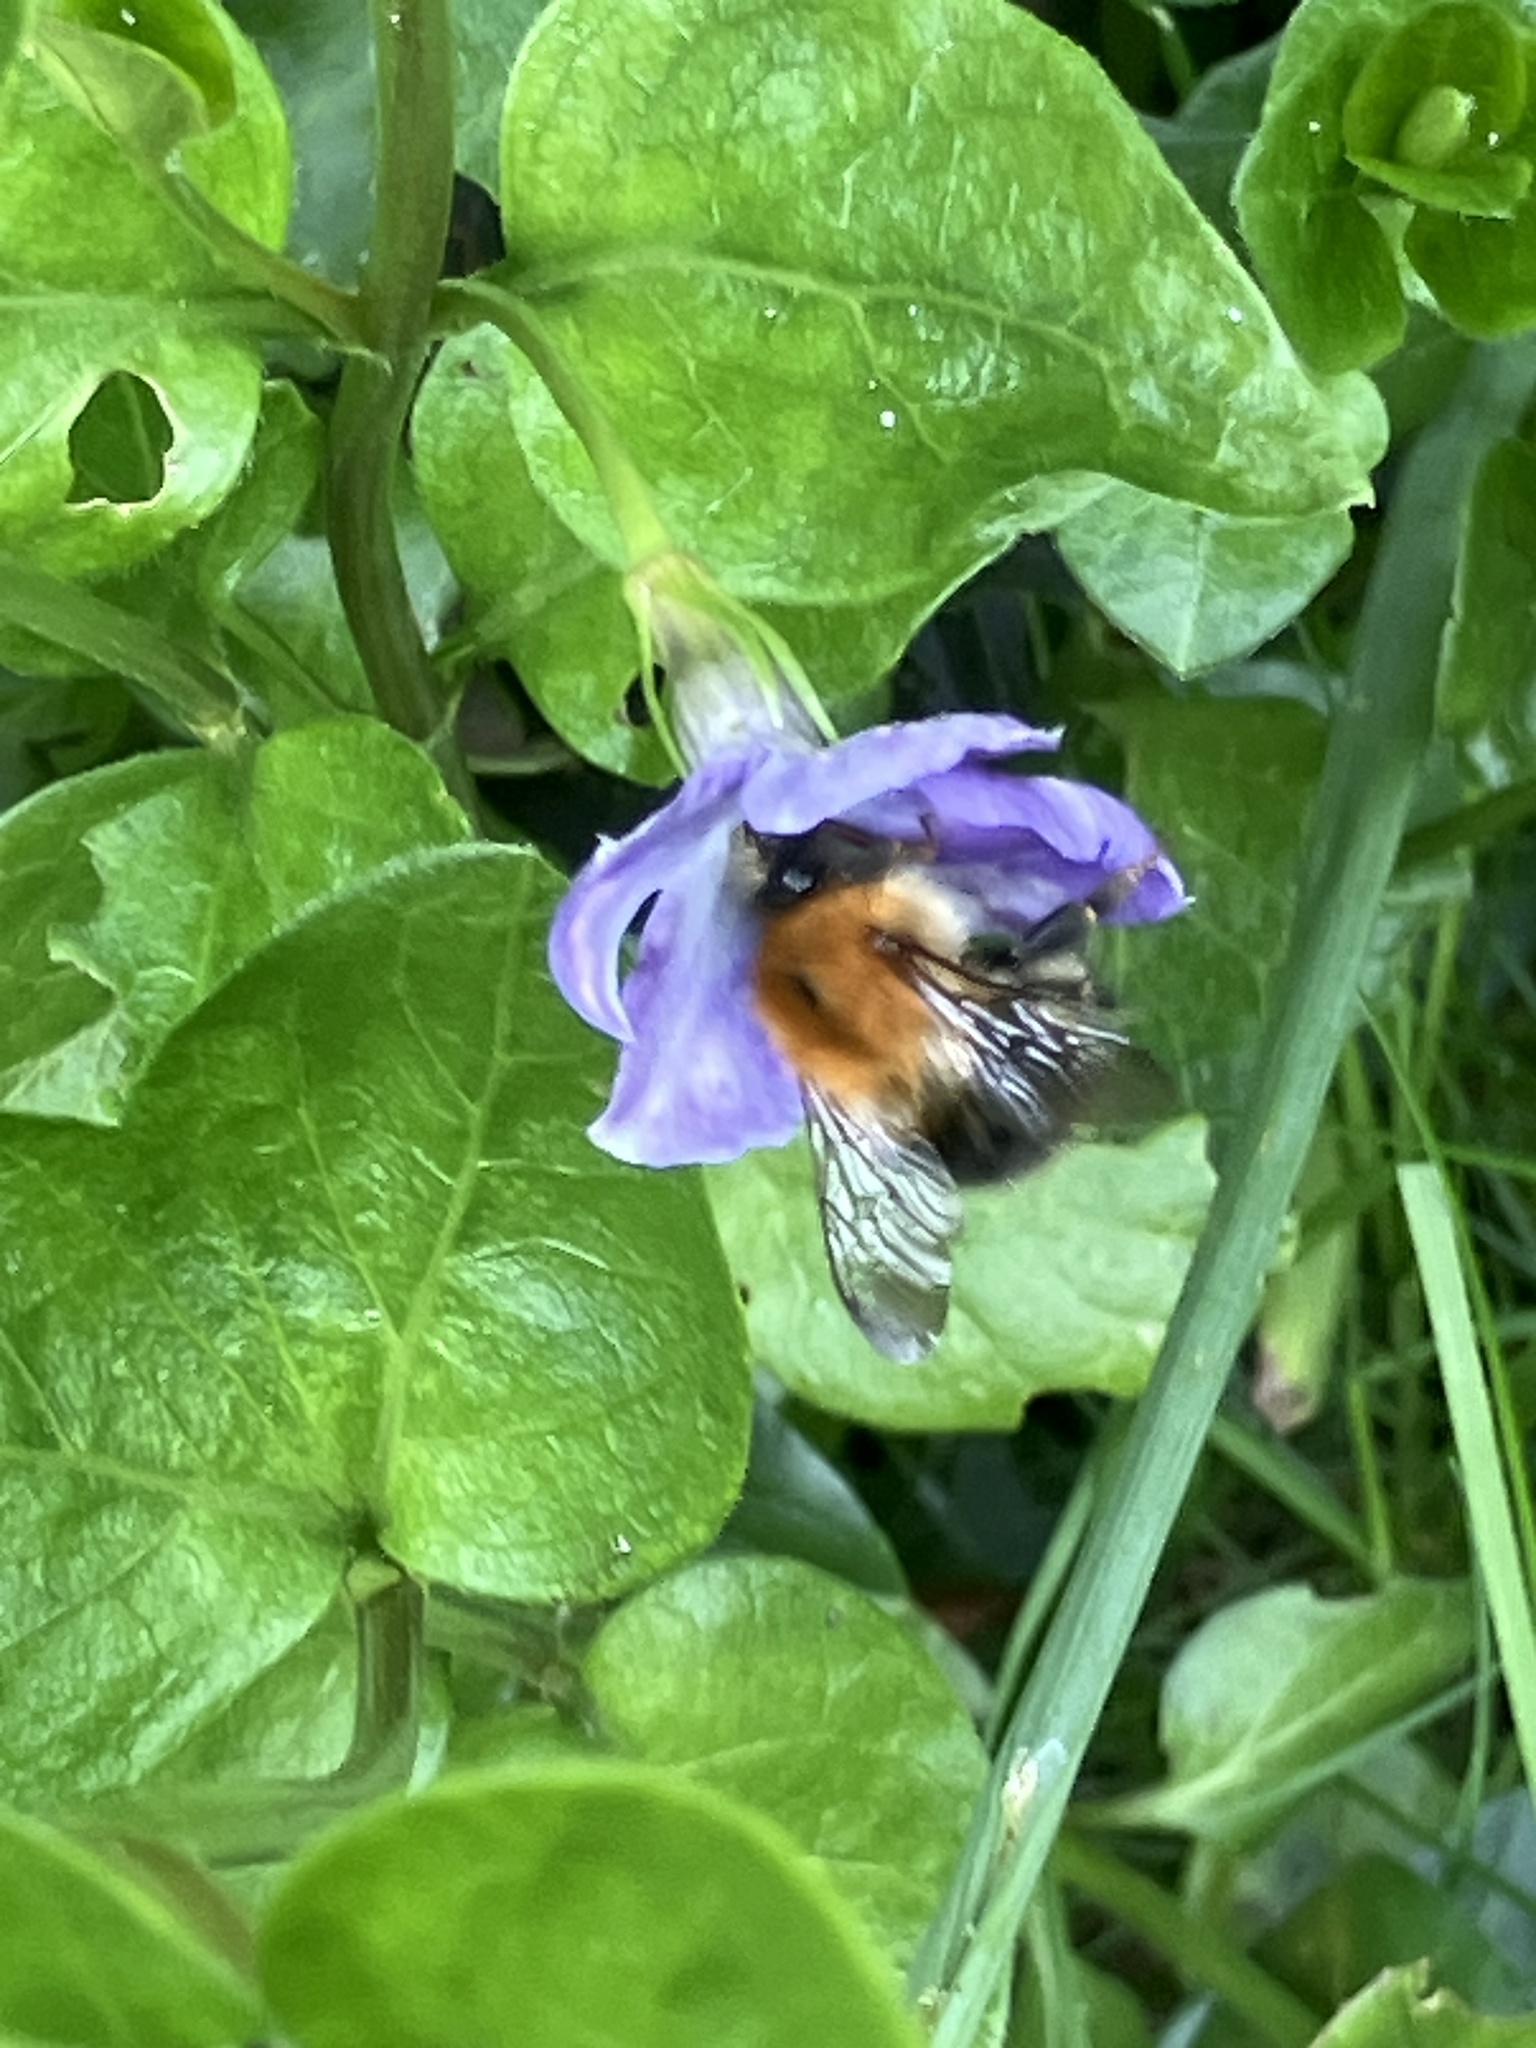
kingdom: Animalia
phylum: Arthropoda
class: Insecta
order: Hymenoptera
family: Apidae
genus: Bombus
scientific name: Bombus pascuorum
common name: Common carder bee
